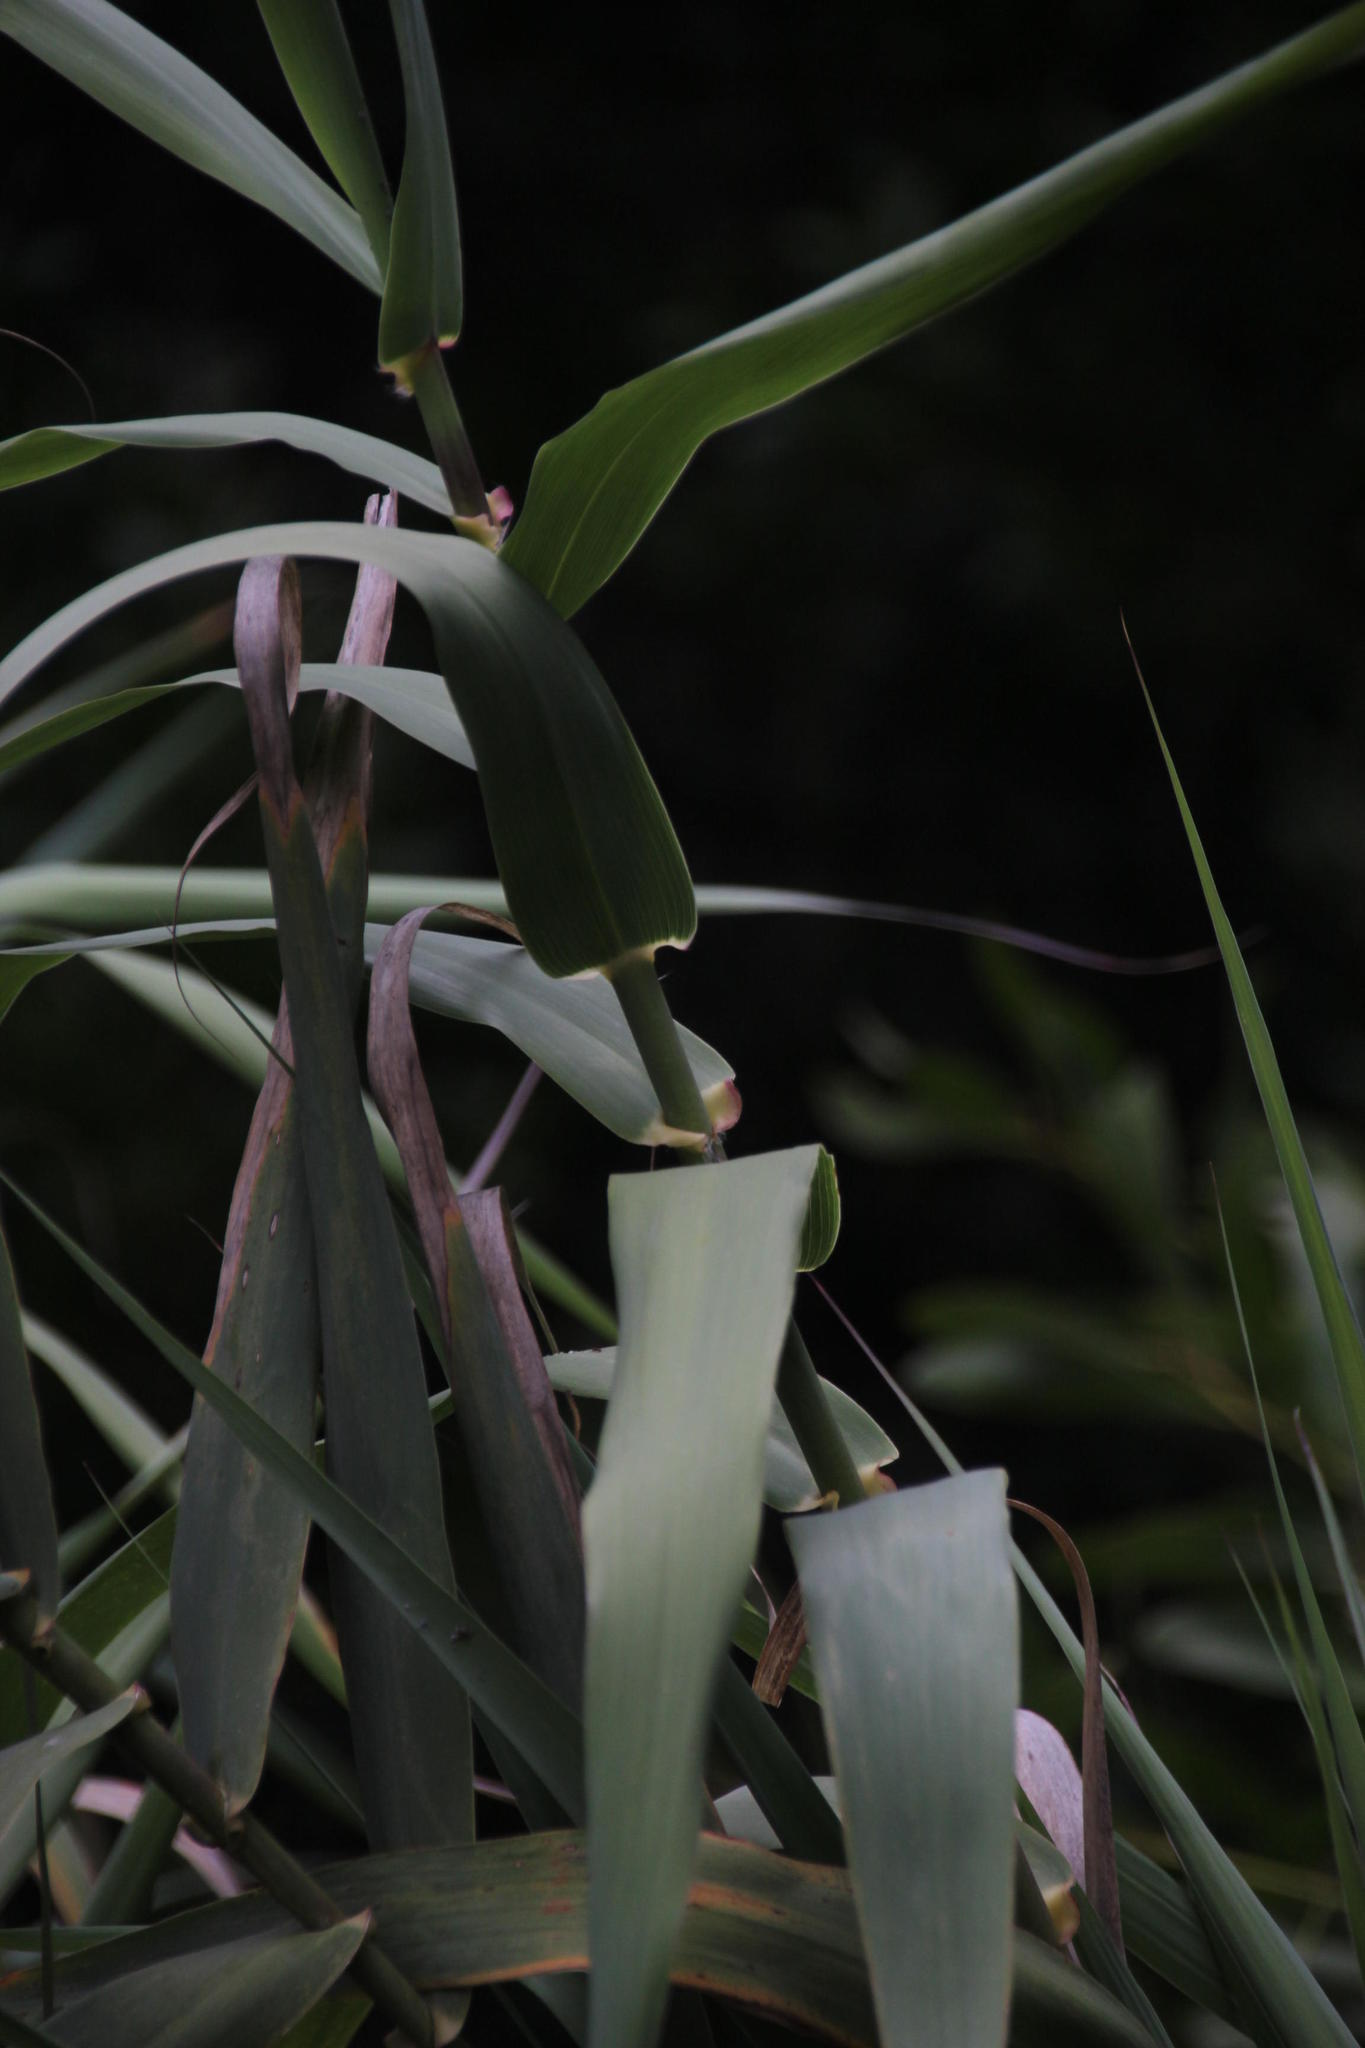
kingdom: Plantae
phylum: Tracheophyta
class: Liliopsida
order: Poales
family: Poaceae
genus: Arundo
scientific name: Arundo donax
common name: Giant reed
